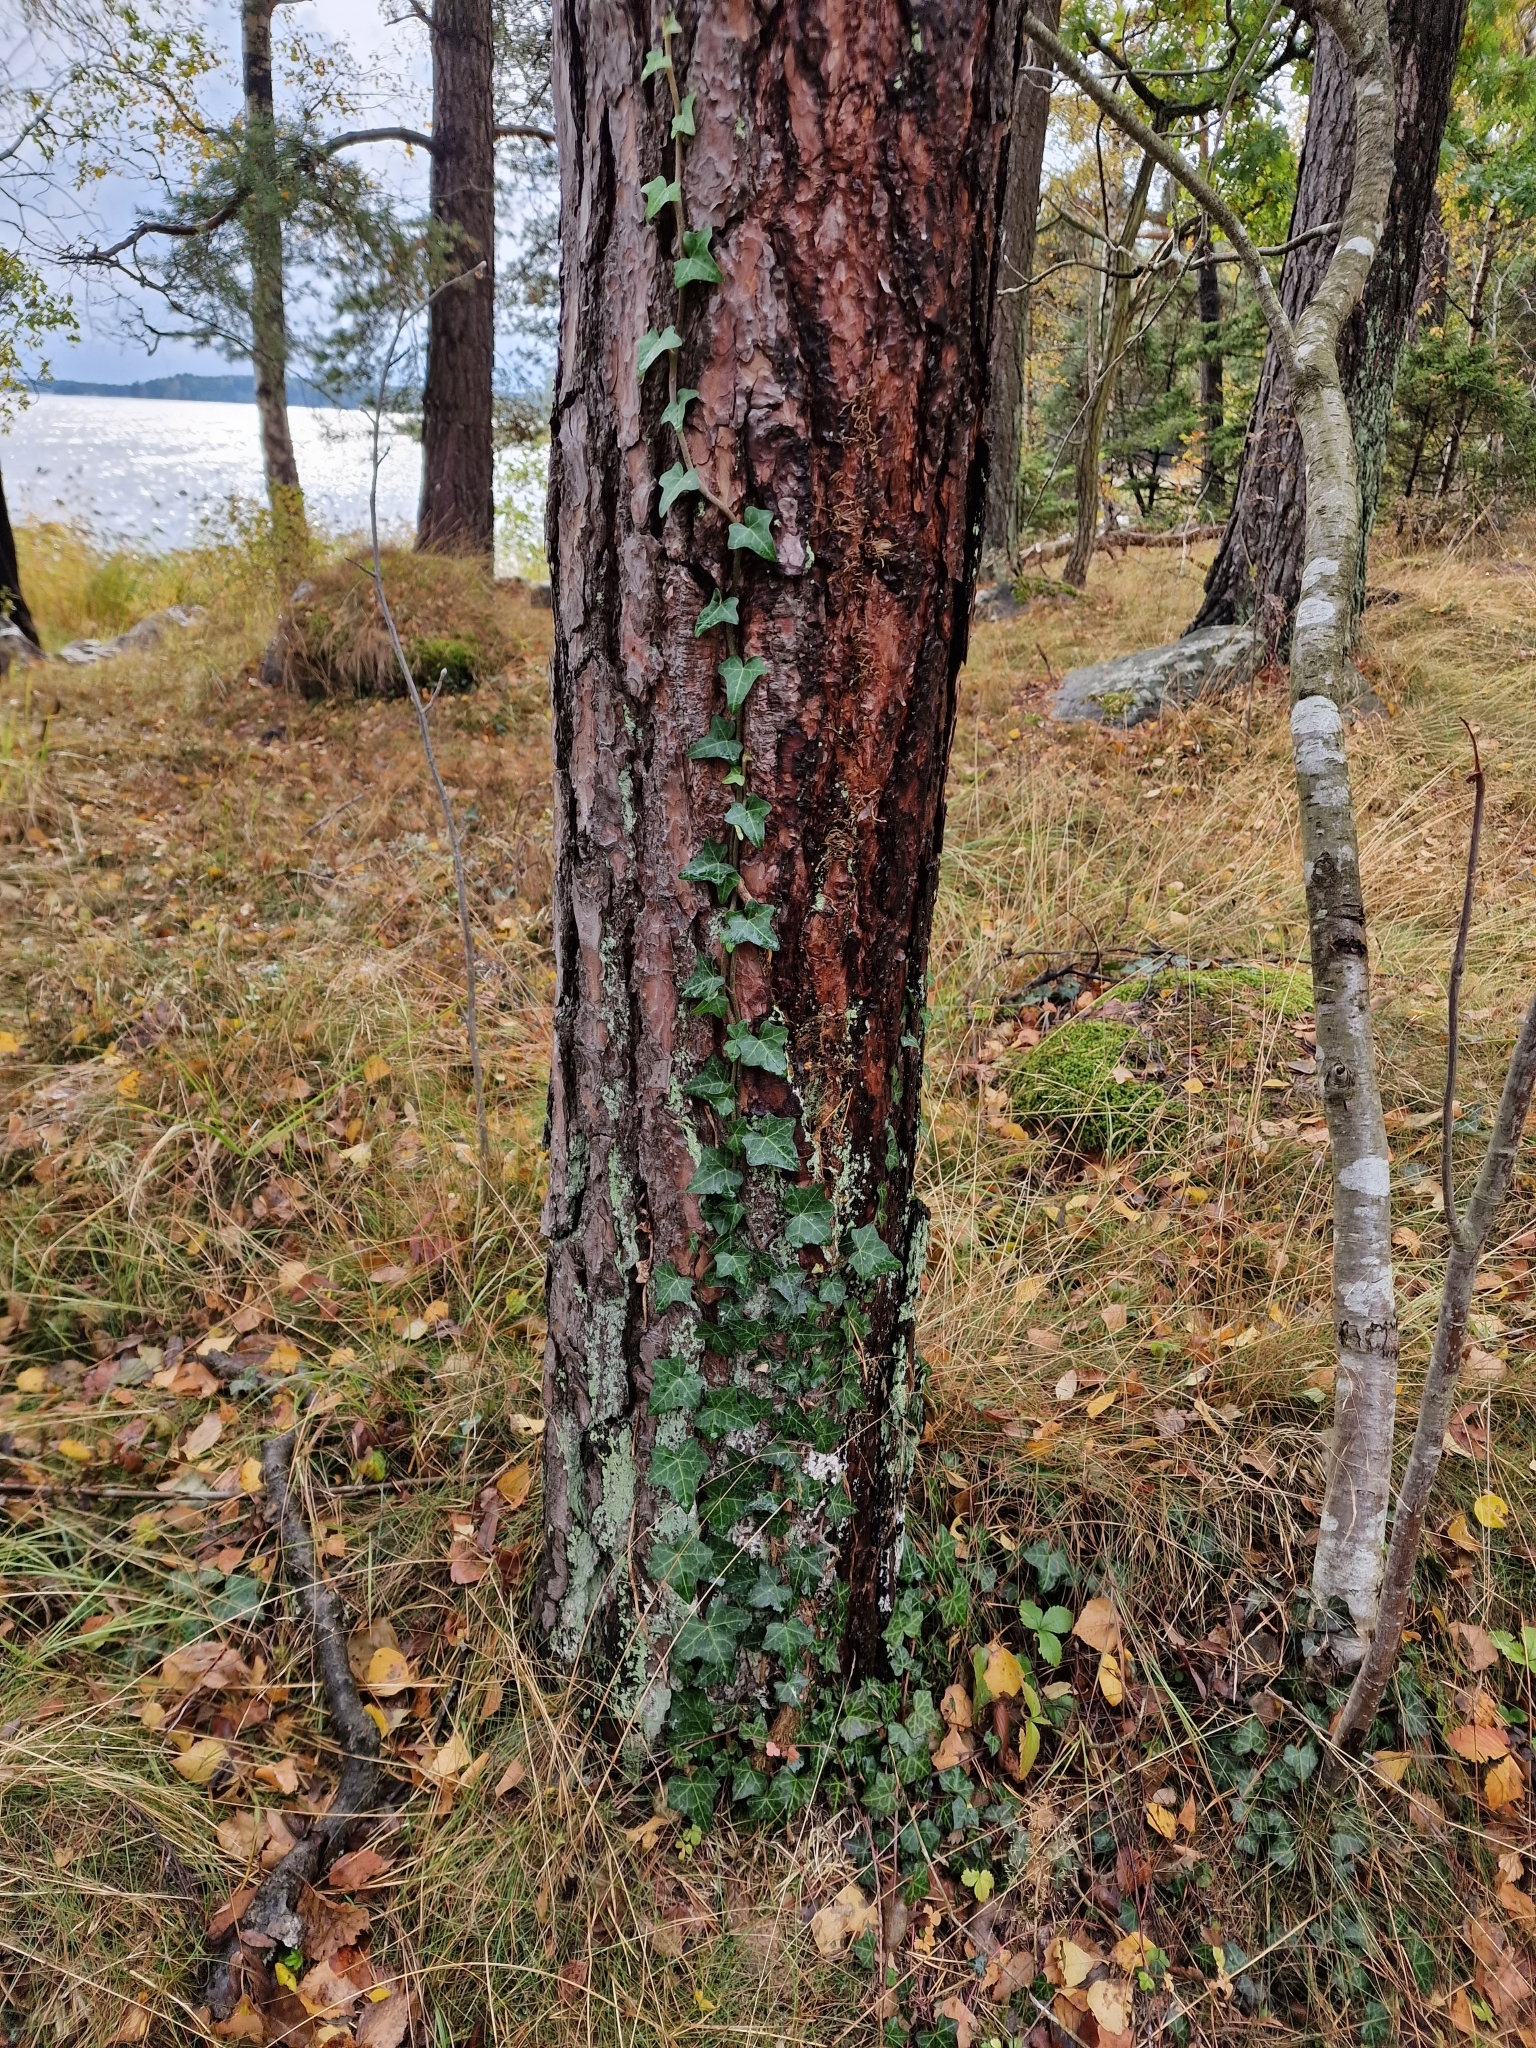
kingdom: Plantae
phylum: Tracheophyta
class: Magnoliopsida
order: Apiales
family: Araliaceae
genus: Hedera
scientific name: Hedera helix
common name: Ivy
